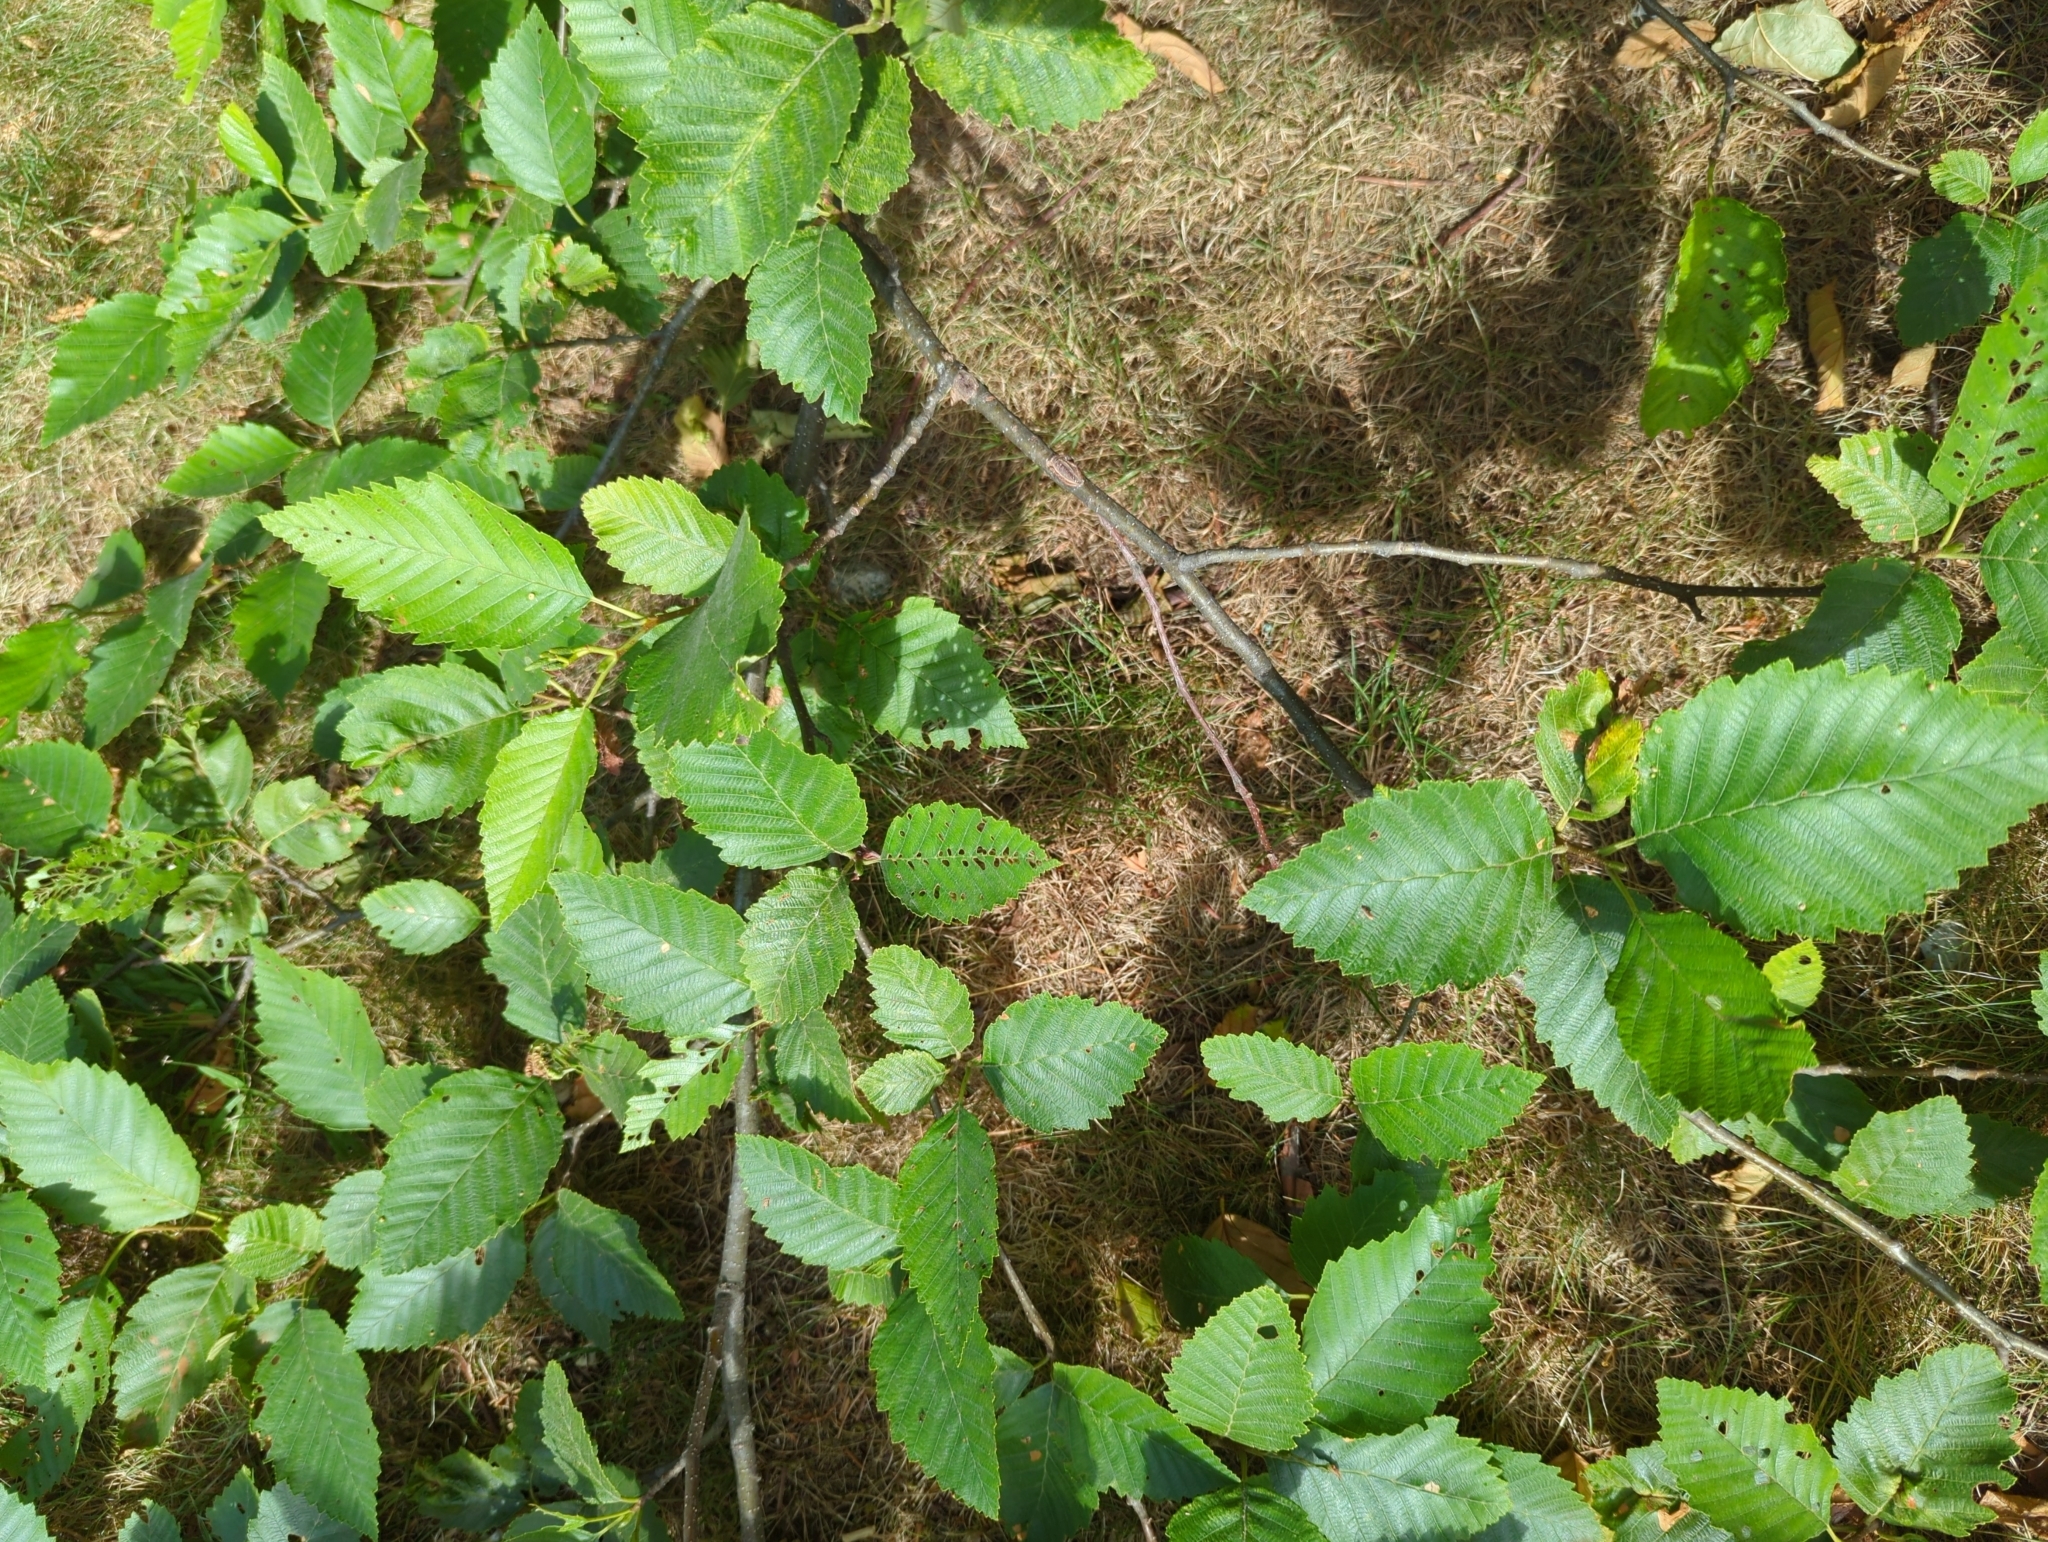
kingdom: Plantae
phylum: Tracheophyta
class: Magnoliopsida
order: Fagales
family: Betulaceae
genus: Alnus
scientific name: Alnus rubra
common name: Red alder
